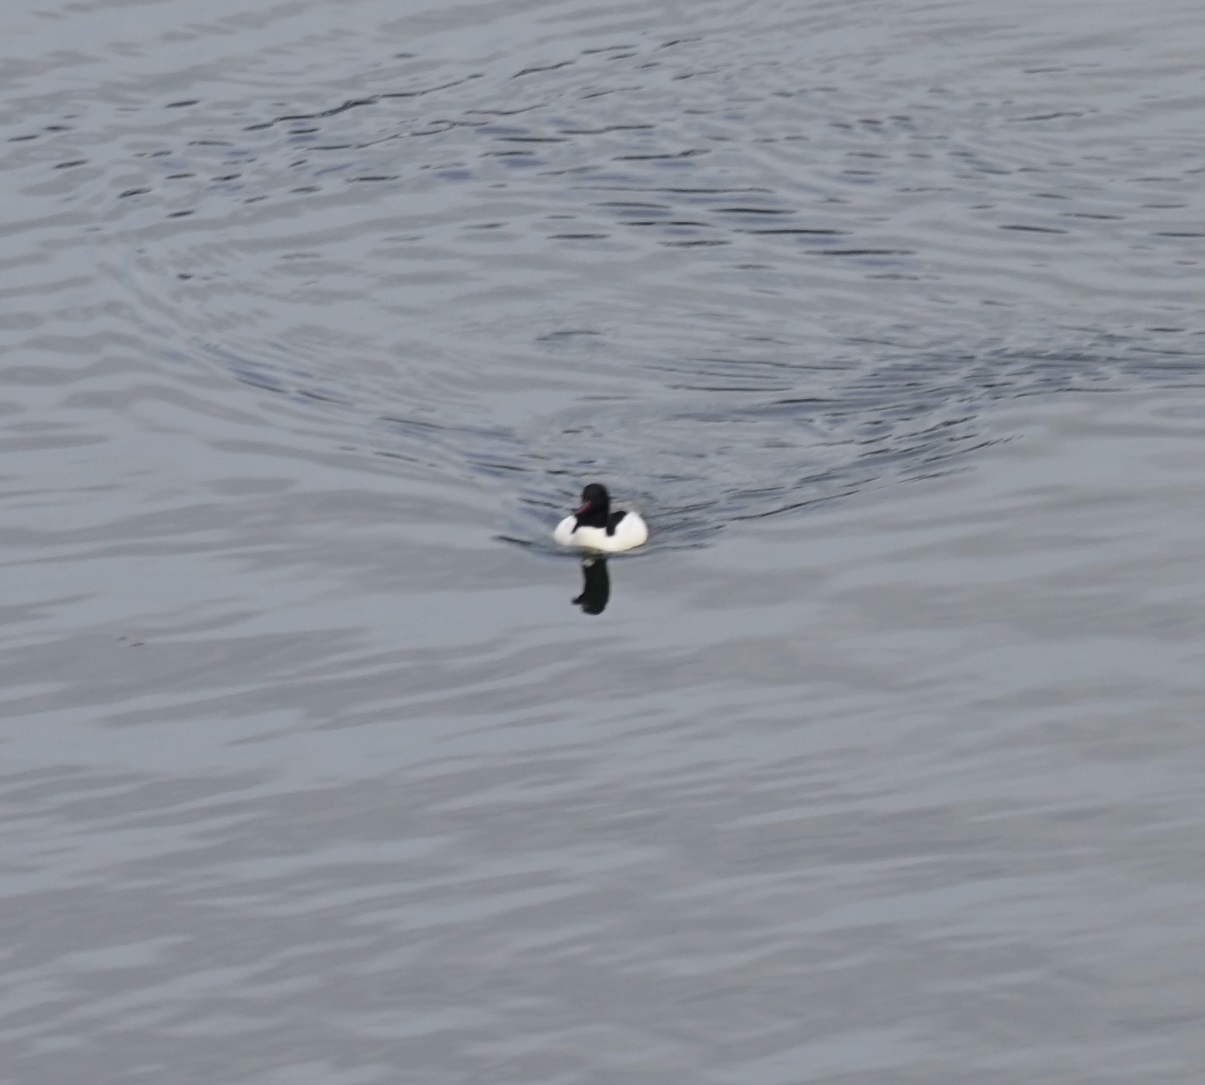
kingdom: Animalia
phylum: Chordata
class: Aves
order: Anseriformes
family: Anatidae
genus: Mergus
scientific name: Mergus merganser
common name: Common merganser
